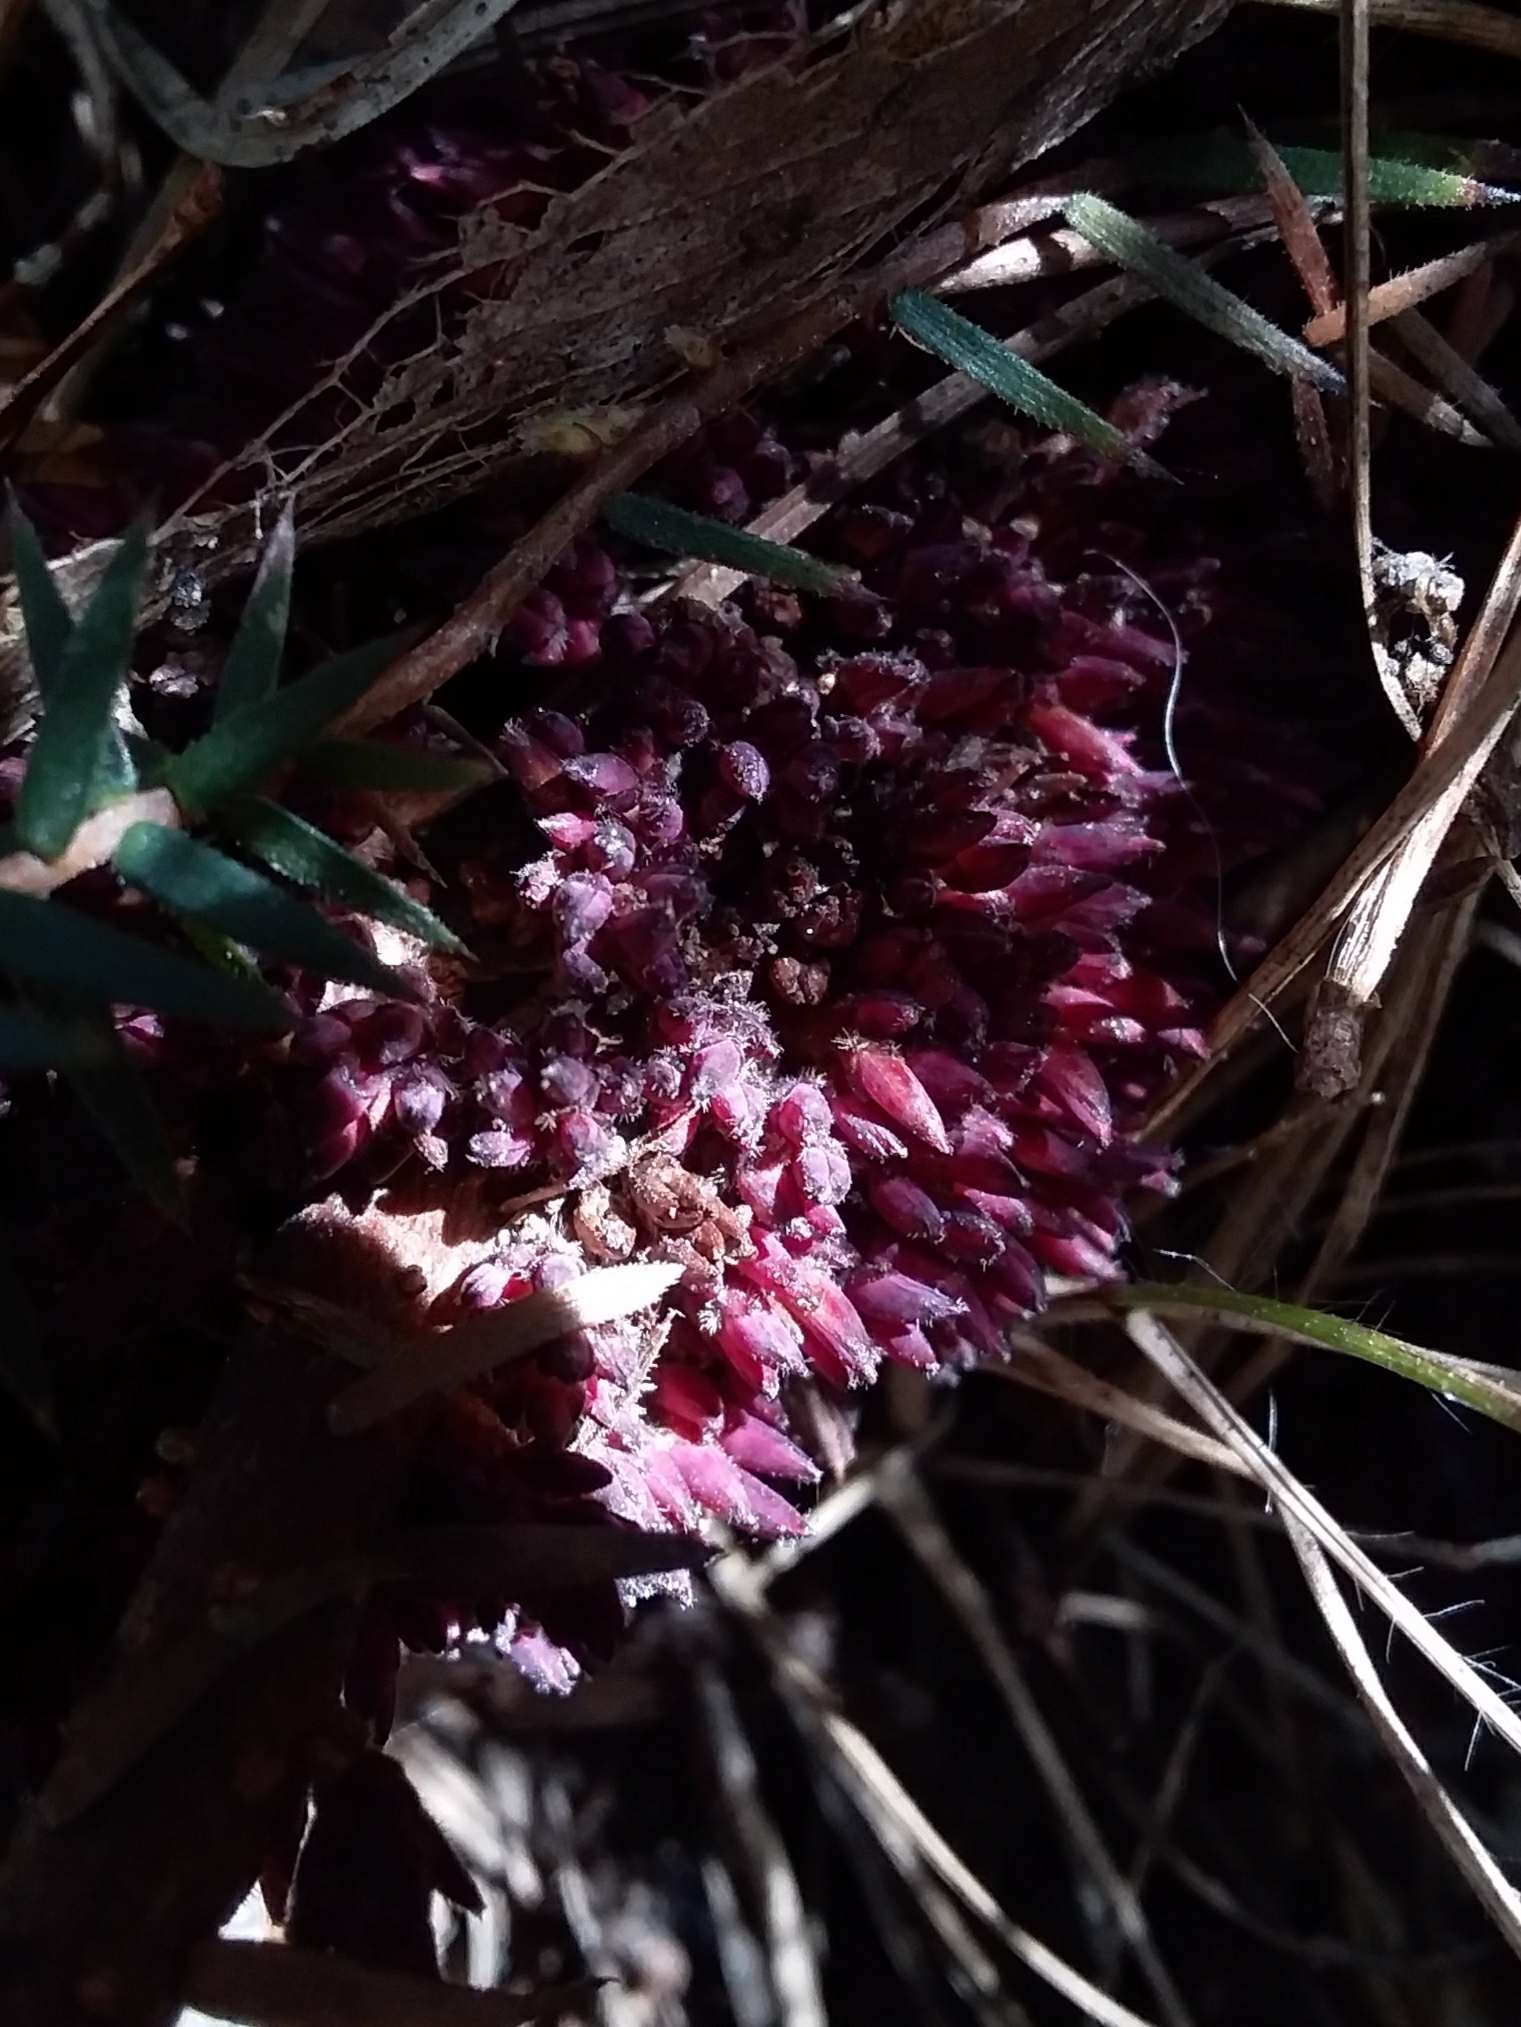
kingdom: Plantae
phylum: Tracheophyta
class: Magnoliopsida
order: Ericales
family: Ericaceae
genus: Acrotriche
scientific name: Acrotriche fasciculiflora
